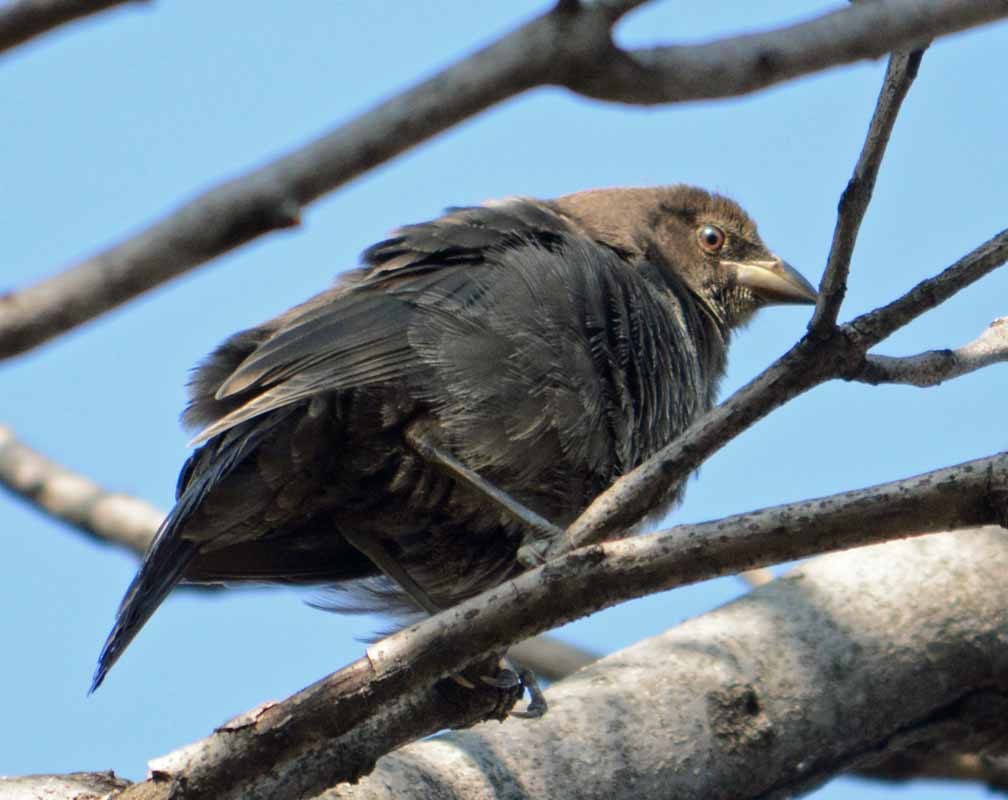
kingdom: Animalia
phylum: Chordata
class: Aves
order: Passeriformes
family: Icteridae
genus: Molothrus
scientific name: Molothrus ater
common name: Brown-headed cowbird
